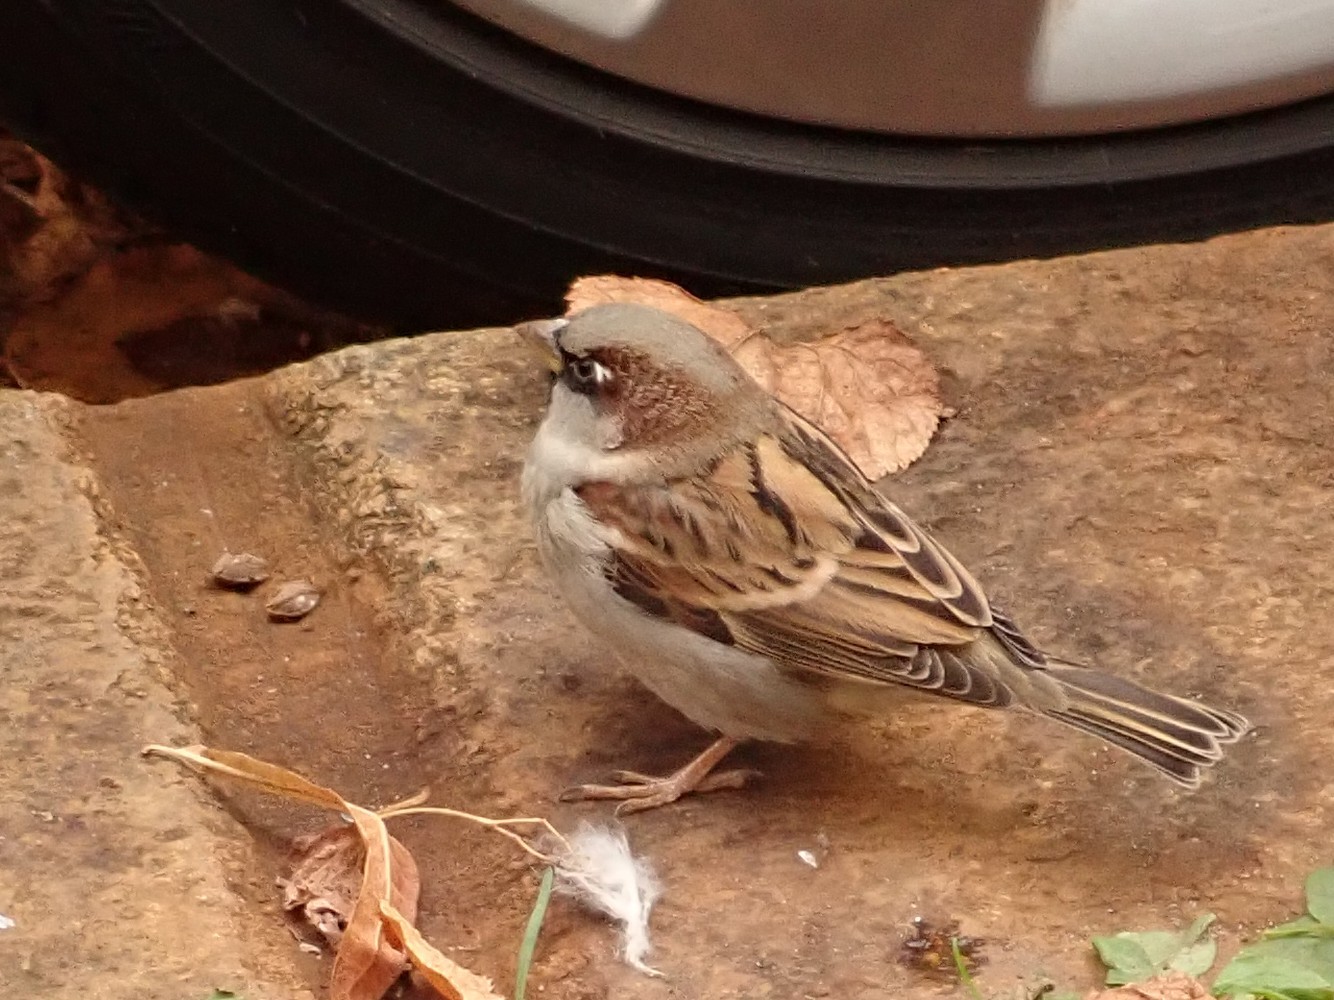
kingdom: Animalia
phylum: Chordata
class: Aves
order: Passeriformes
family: Passeridae
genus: Passer
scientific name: Passer domesticus
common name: House sparrow
